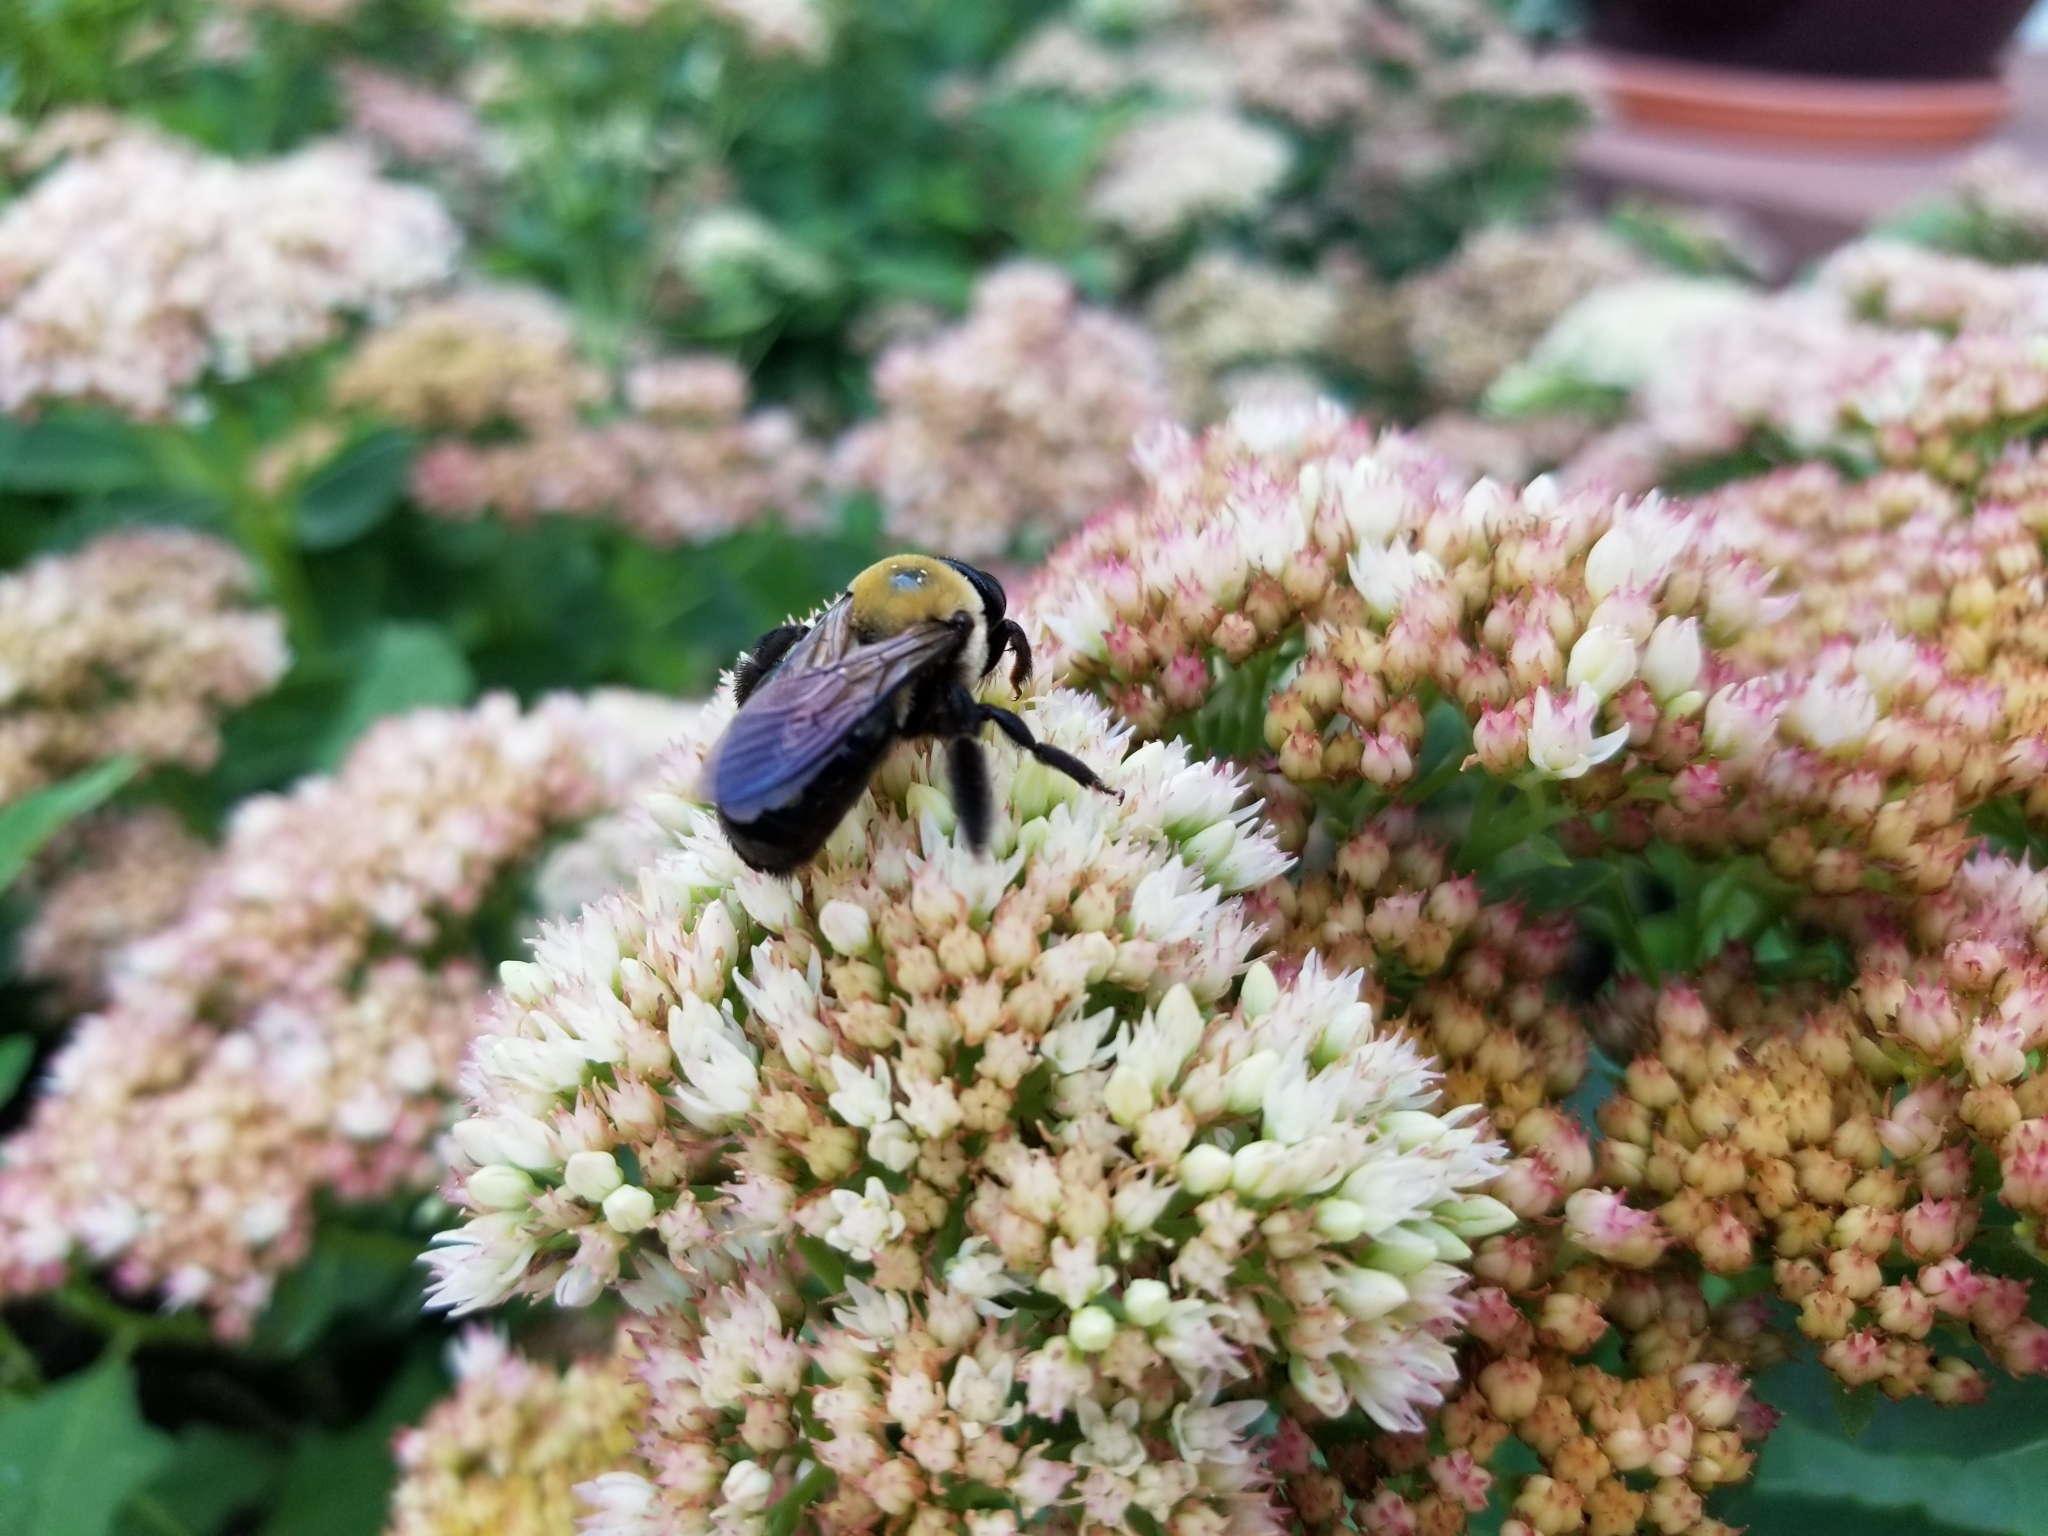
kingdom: Animalia
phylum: Arthropoda
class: Insecta
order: Hymenoptera
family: Apidae
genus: Xylocopa
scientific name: Xylocopa virginica
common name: Carpenter bee
